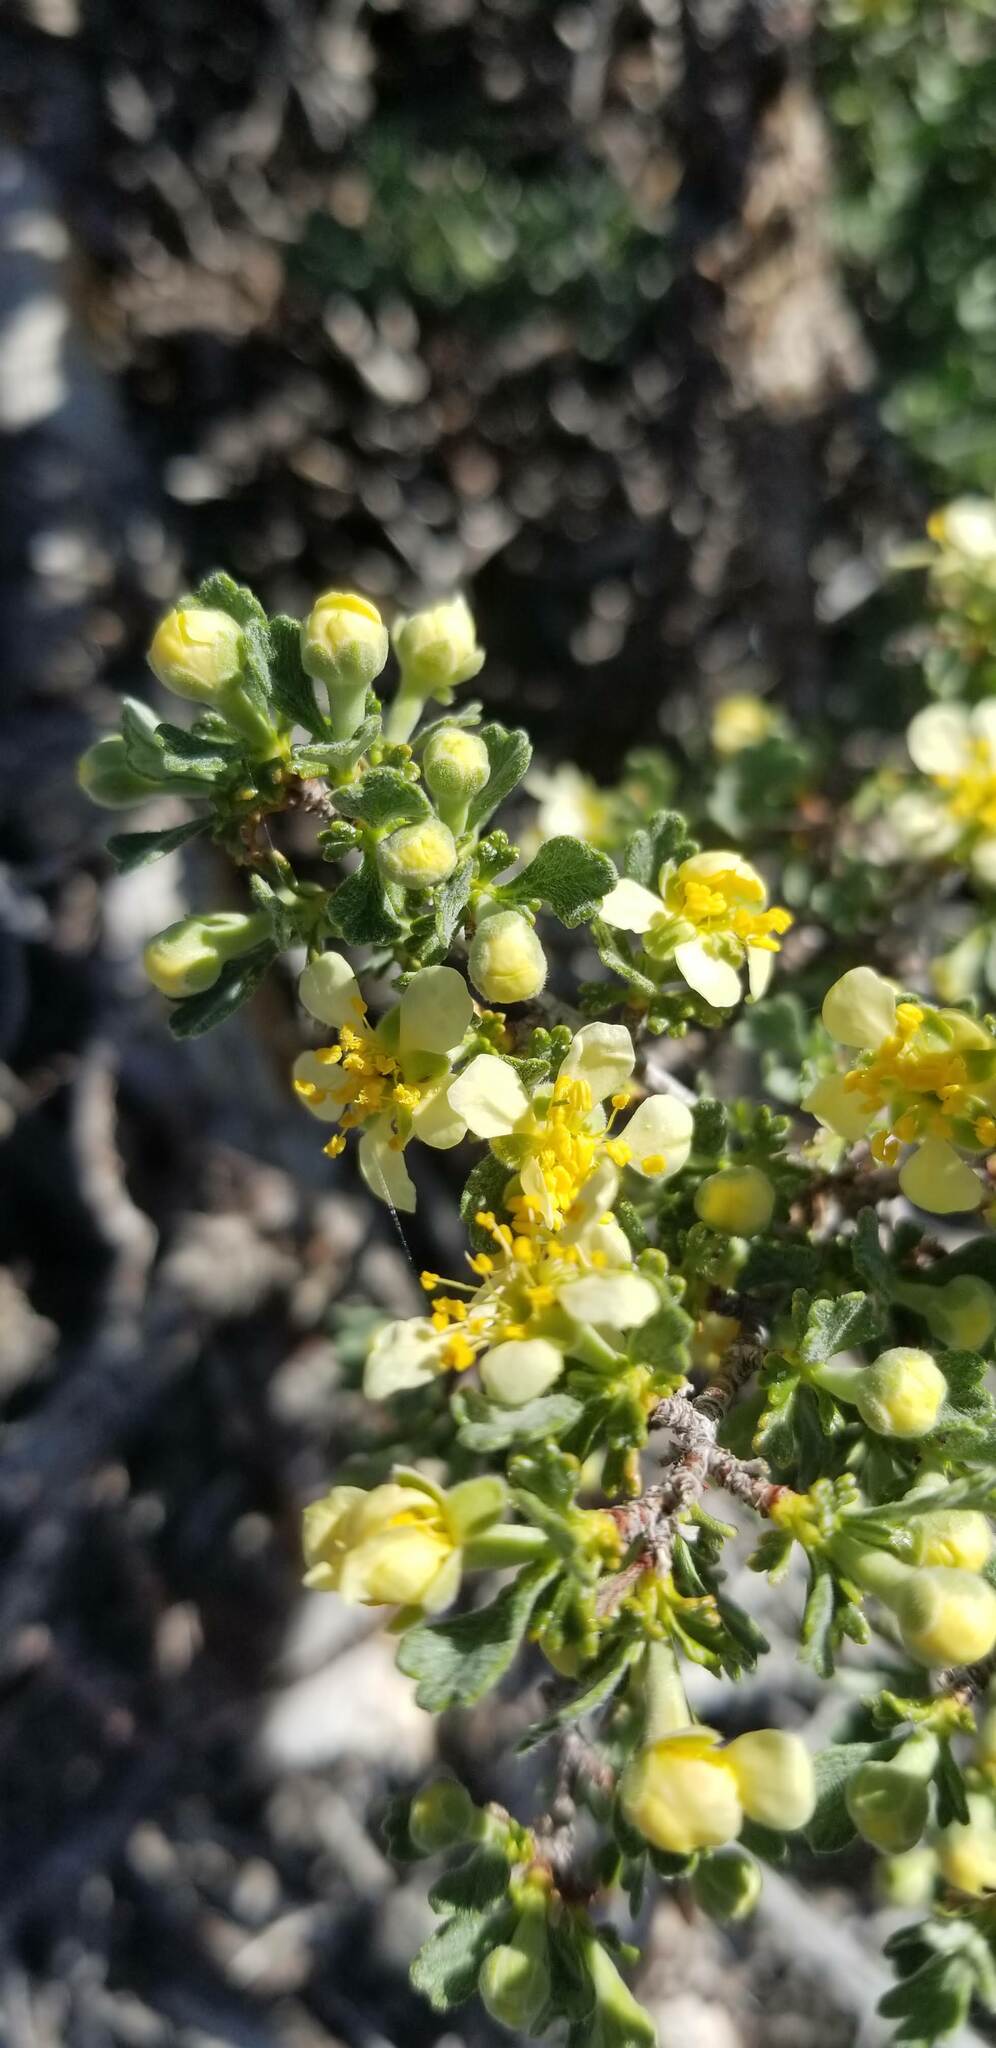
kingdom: Plantae
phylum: Tracheophyta
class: Magnoliopsida
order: Rosales
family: Rosaceae
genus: Purshia
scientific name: Purshia tridentata
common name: Antelope bitterbrush
